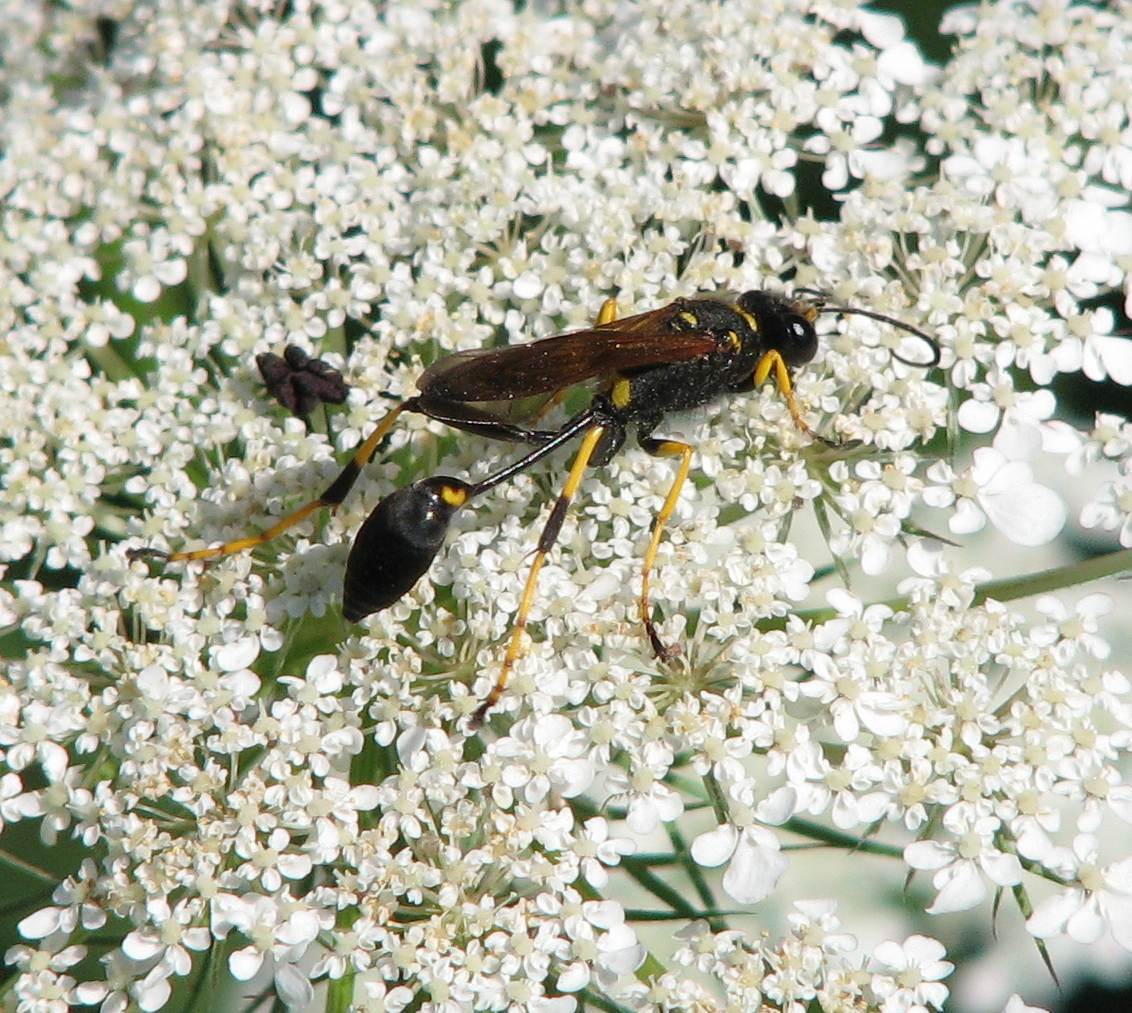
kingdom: Animalia
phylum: Arthropoda
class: Insecta
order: Hymenoptera
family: Sphecidae
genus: Sceliphron
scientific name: Sceliphron caementarium
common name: Mud dauber
